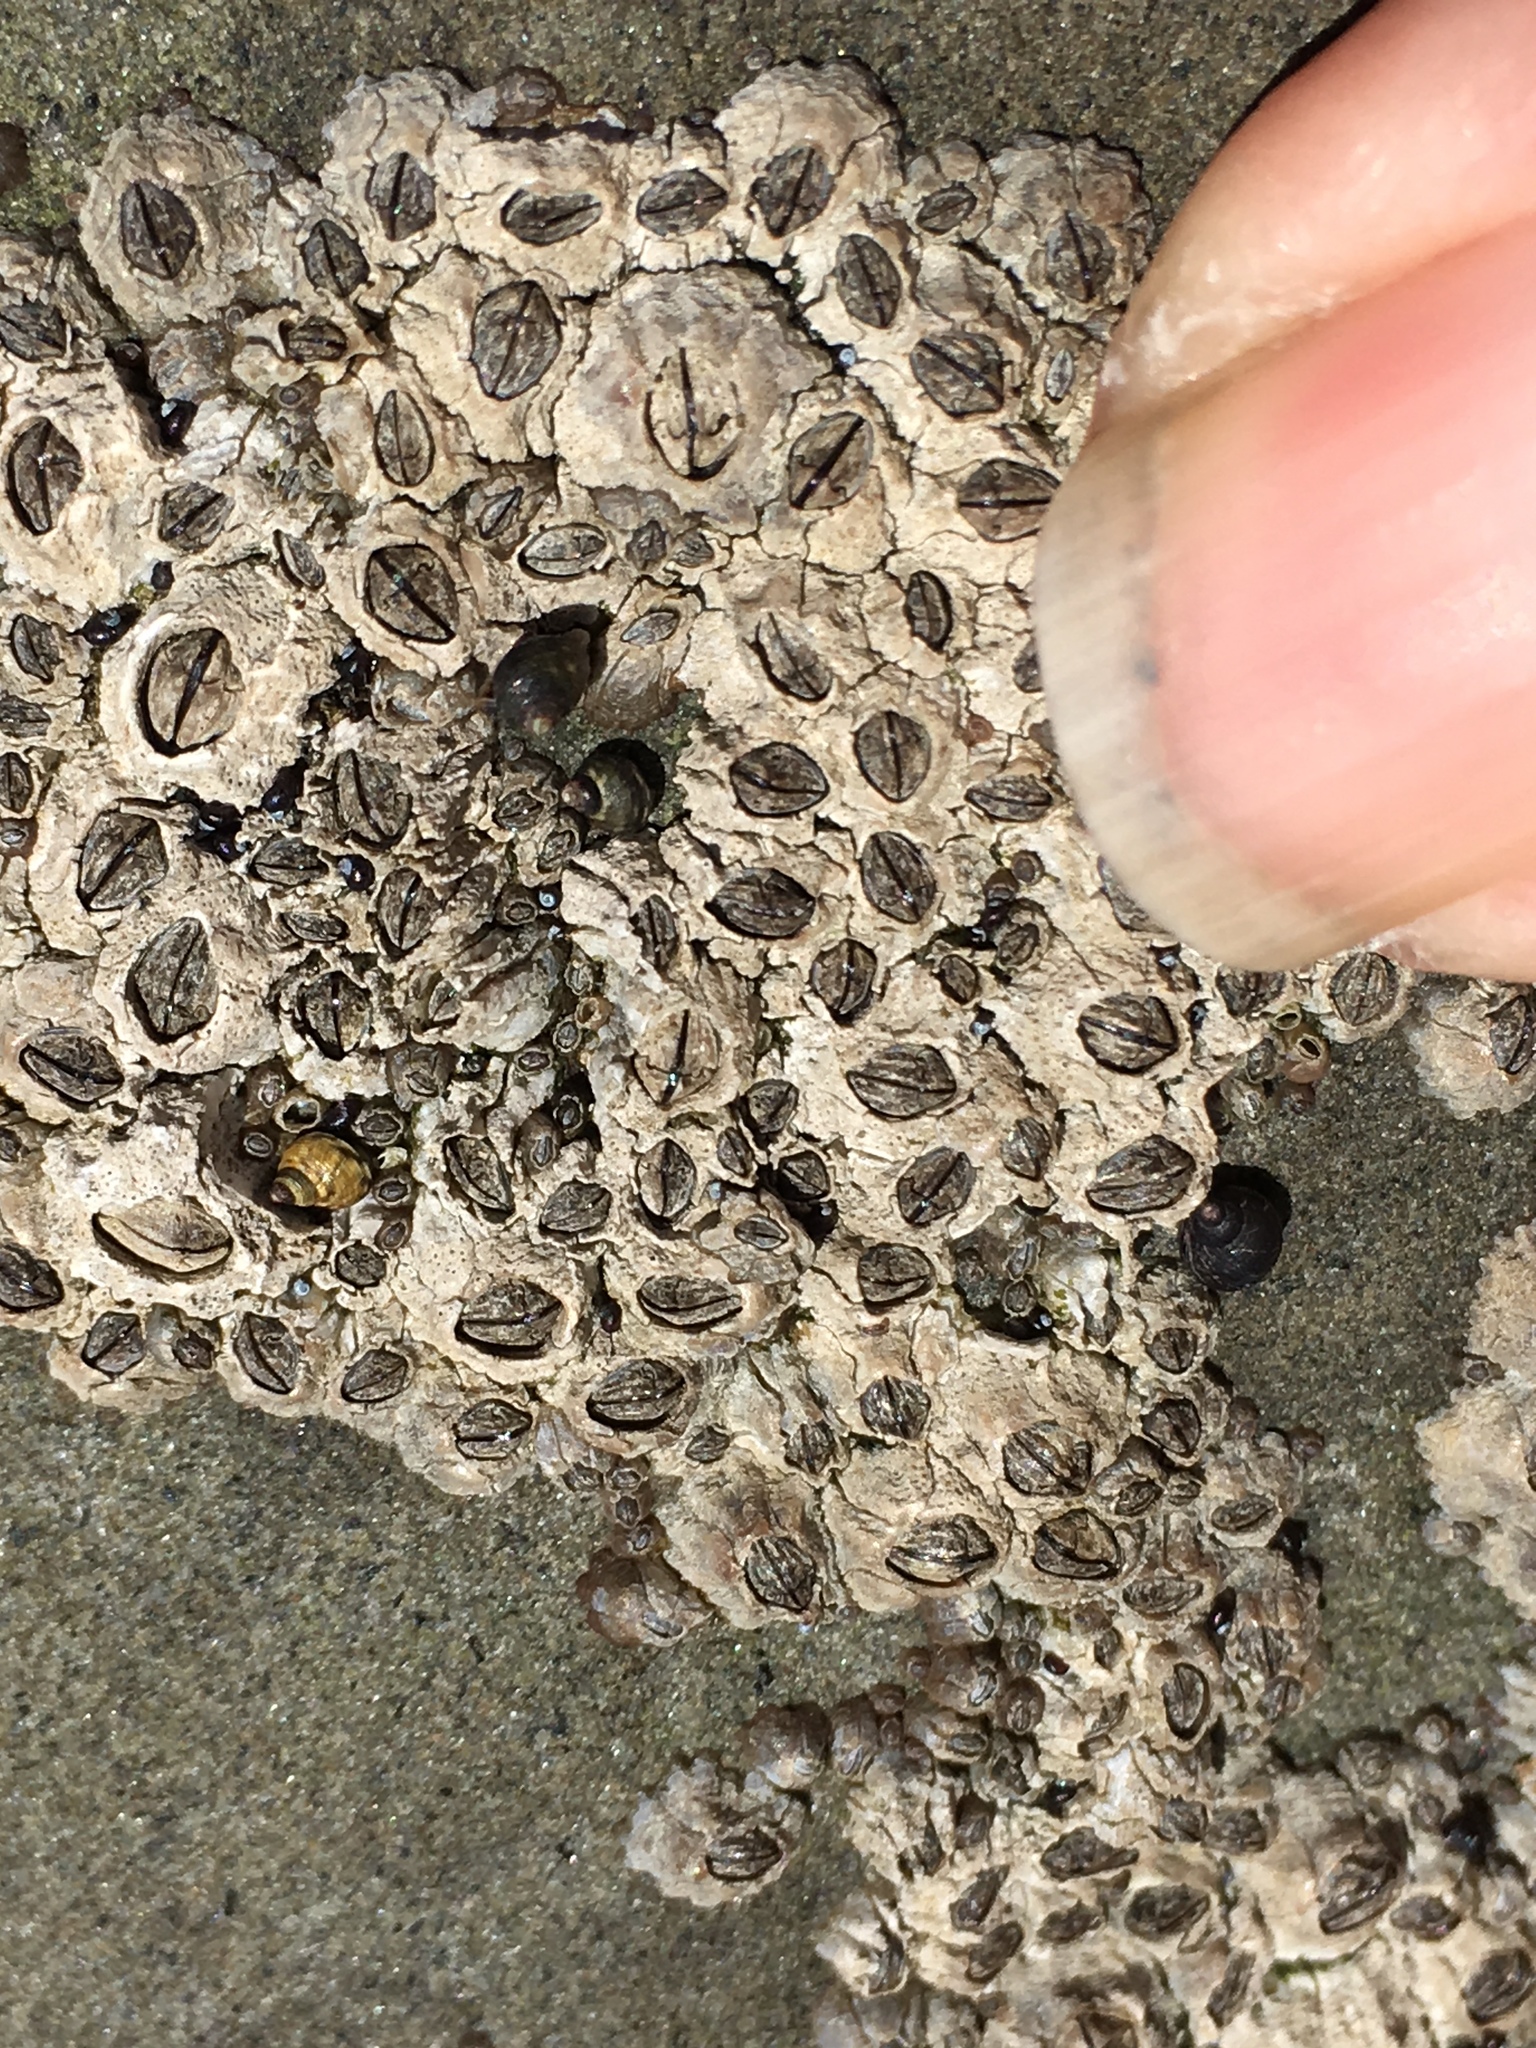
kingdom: Animalia
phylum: Arthropoda
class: Maxillopoda
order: Sessilia
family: Chthamalidae
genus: Chthamalus
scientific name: Chthamalus dalli
